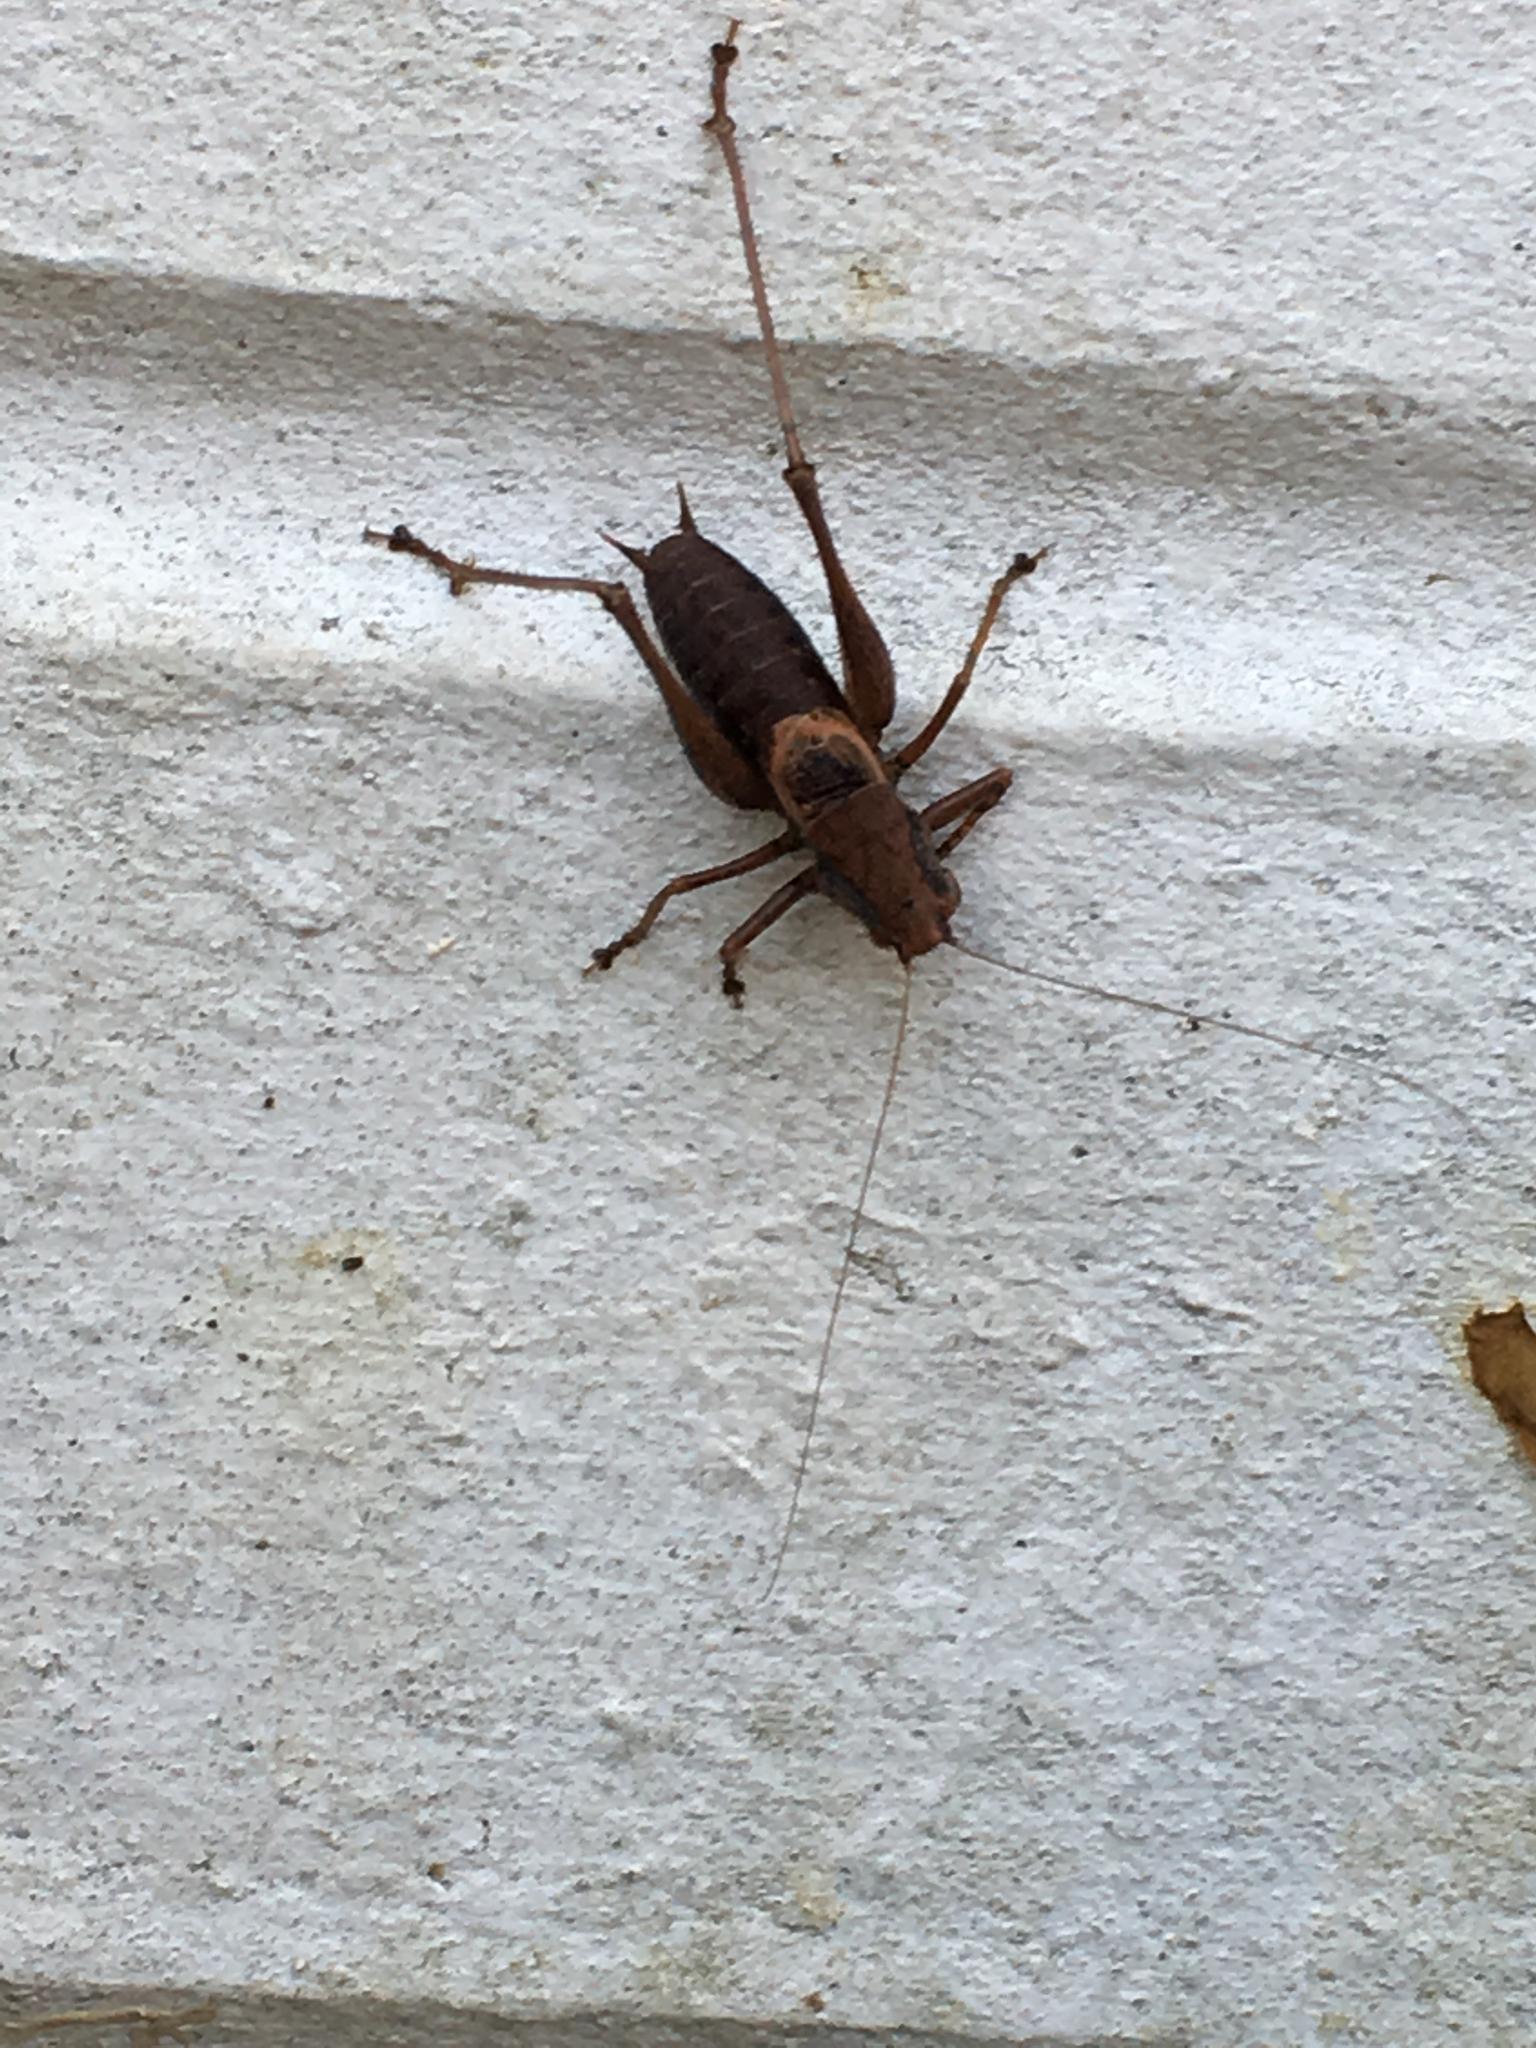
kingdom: Animalia
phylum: Arthropoda
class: Insecta
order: Orthoptera
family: Tettigoniidae
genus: Pholidoptera
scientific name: Pholidoptera griseoaptera
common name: Dark bush-cricket
